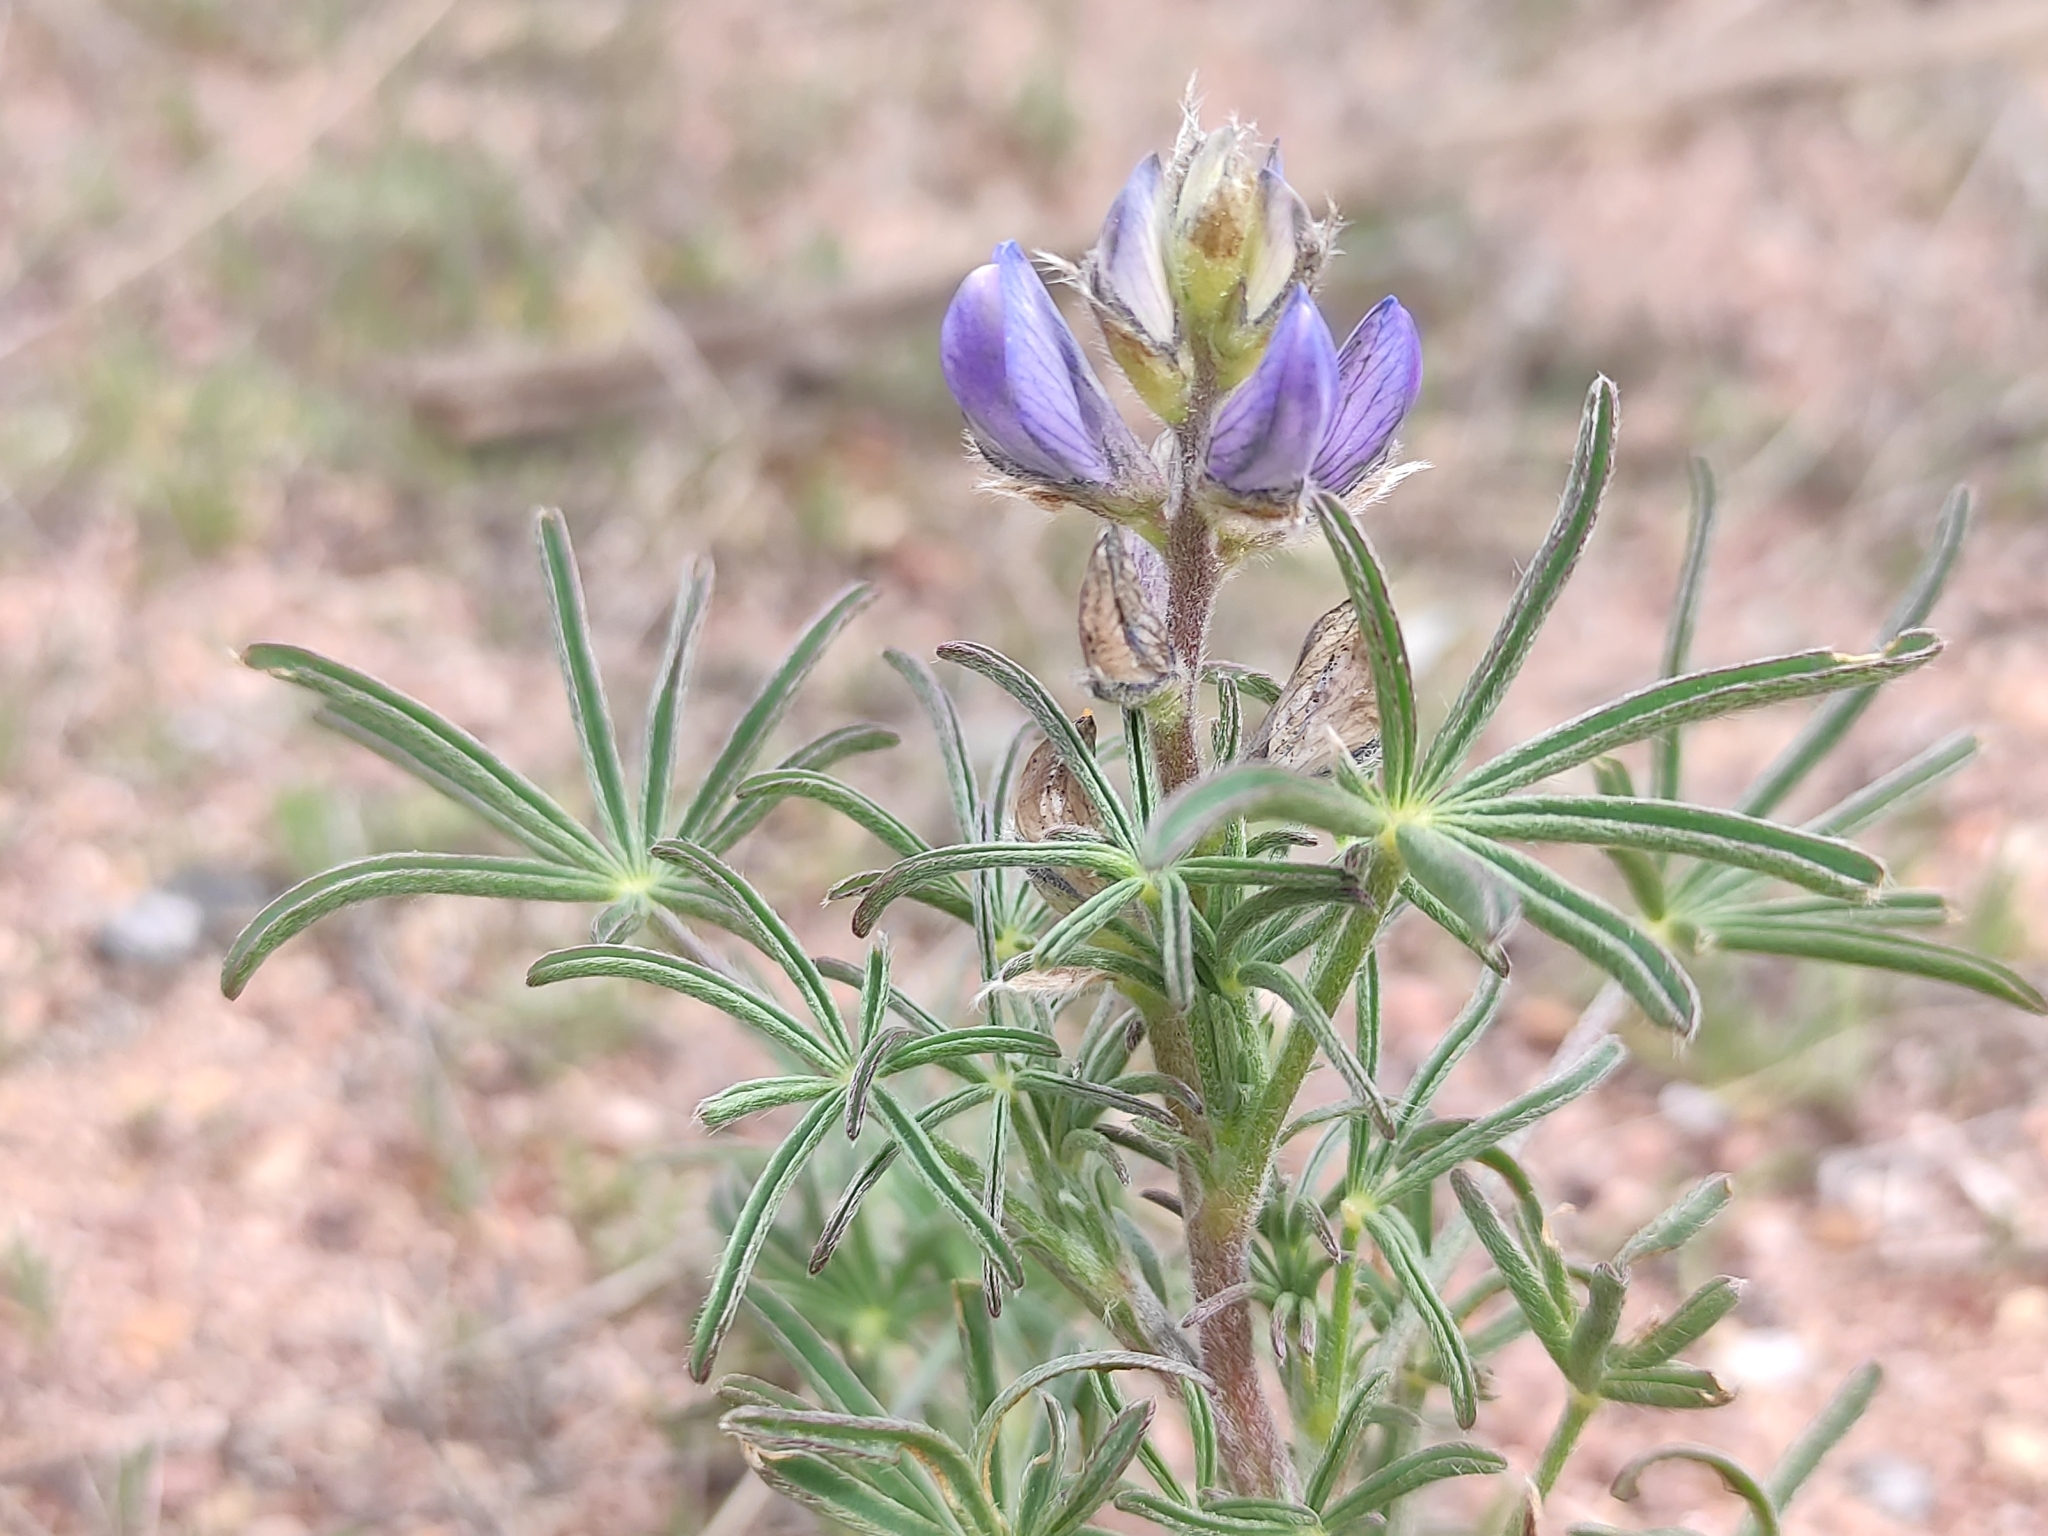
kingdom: Plantae
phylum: Tracheophyta
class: Magnoliopsida
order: Fabales
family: Fabaceae
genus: Lupinus
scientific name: Lupinus angustifolius
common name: Narrow-leaved lupin
